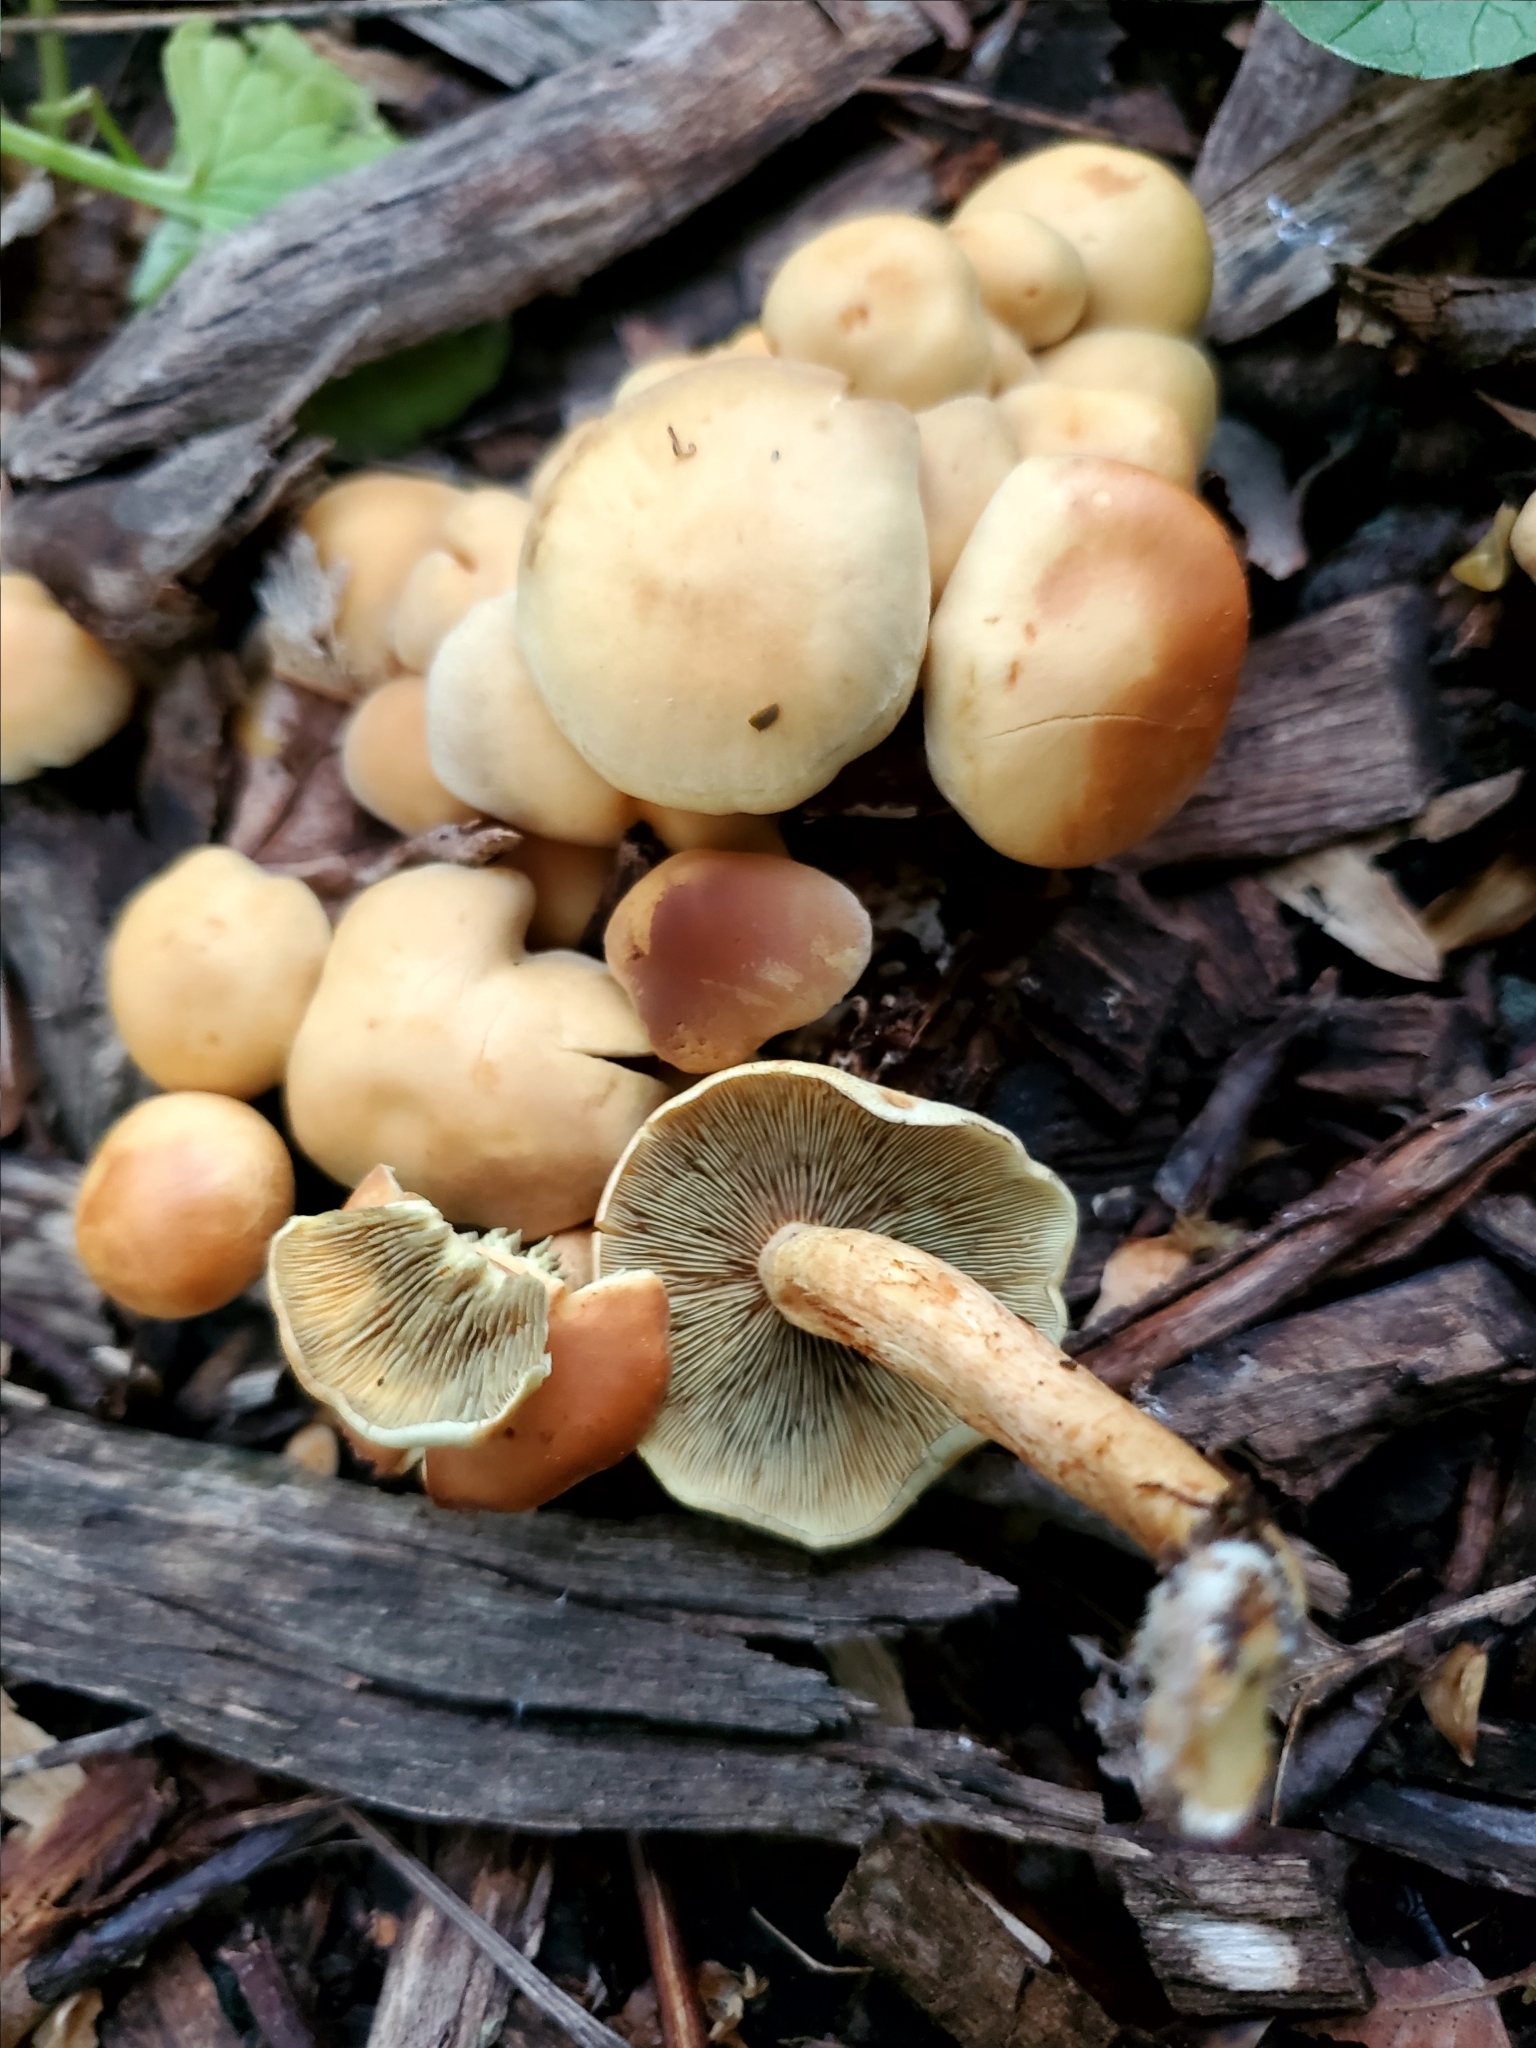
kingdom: Fungi
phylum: Basidiomycota
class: Agaricomycetes
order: Agaricales
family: Strophariaceae
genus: Hypholoma
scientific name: Hypholoma fasciculare
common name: Sulphur tuft
